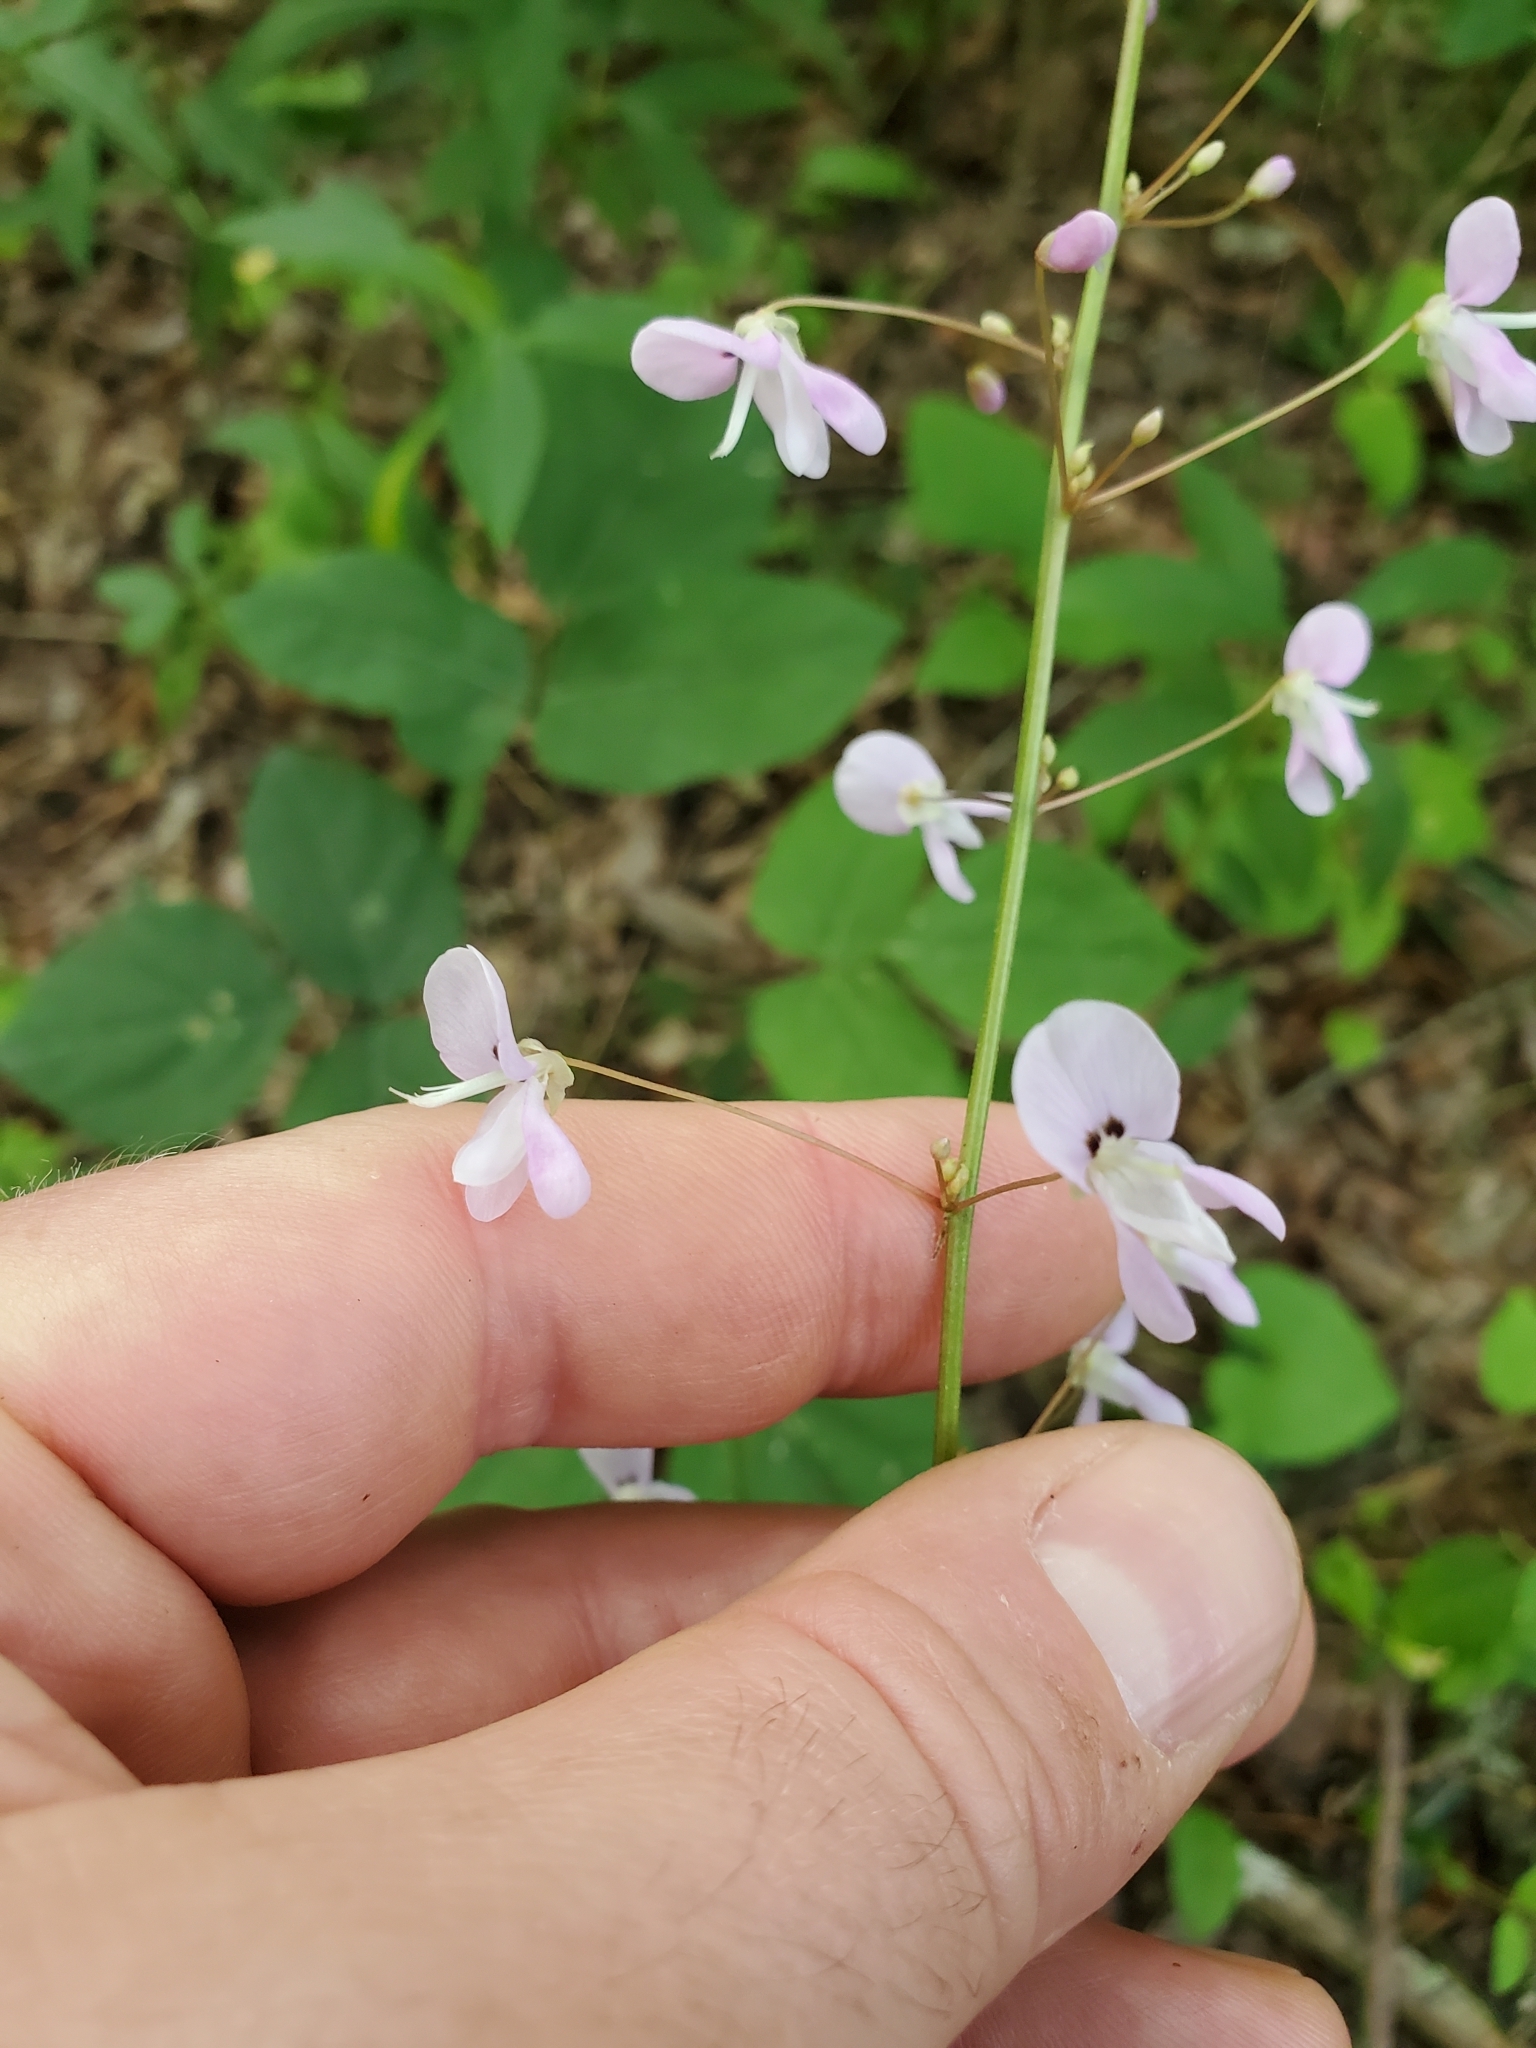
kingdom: Plantae
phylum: Tracheophyta
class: Magnoliopsida
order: Fabales
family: Fabaceae
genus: Hylodesmum
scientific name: Hylodesmum nudiflorum
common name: Bare-stemmed tick-trefoil
